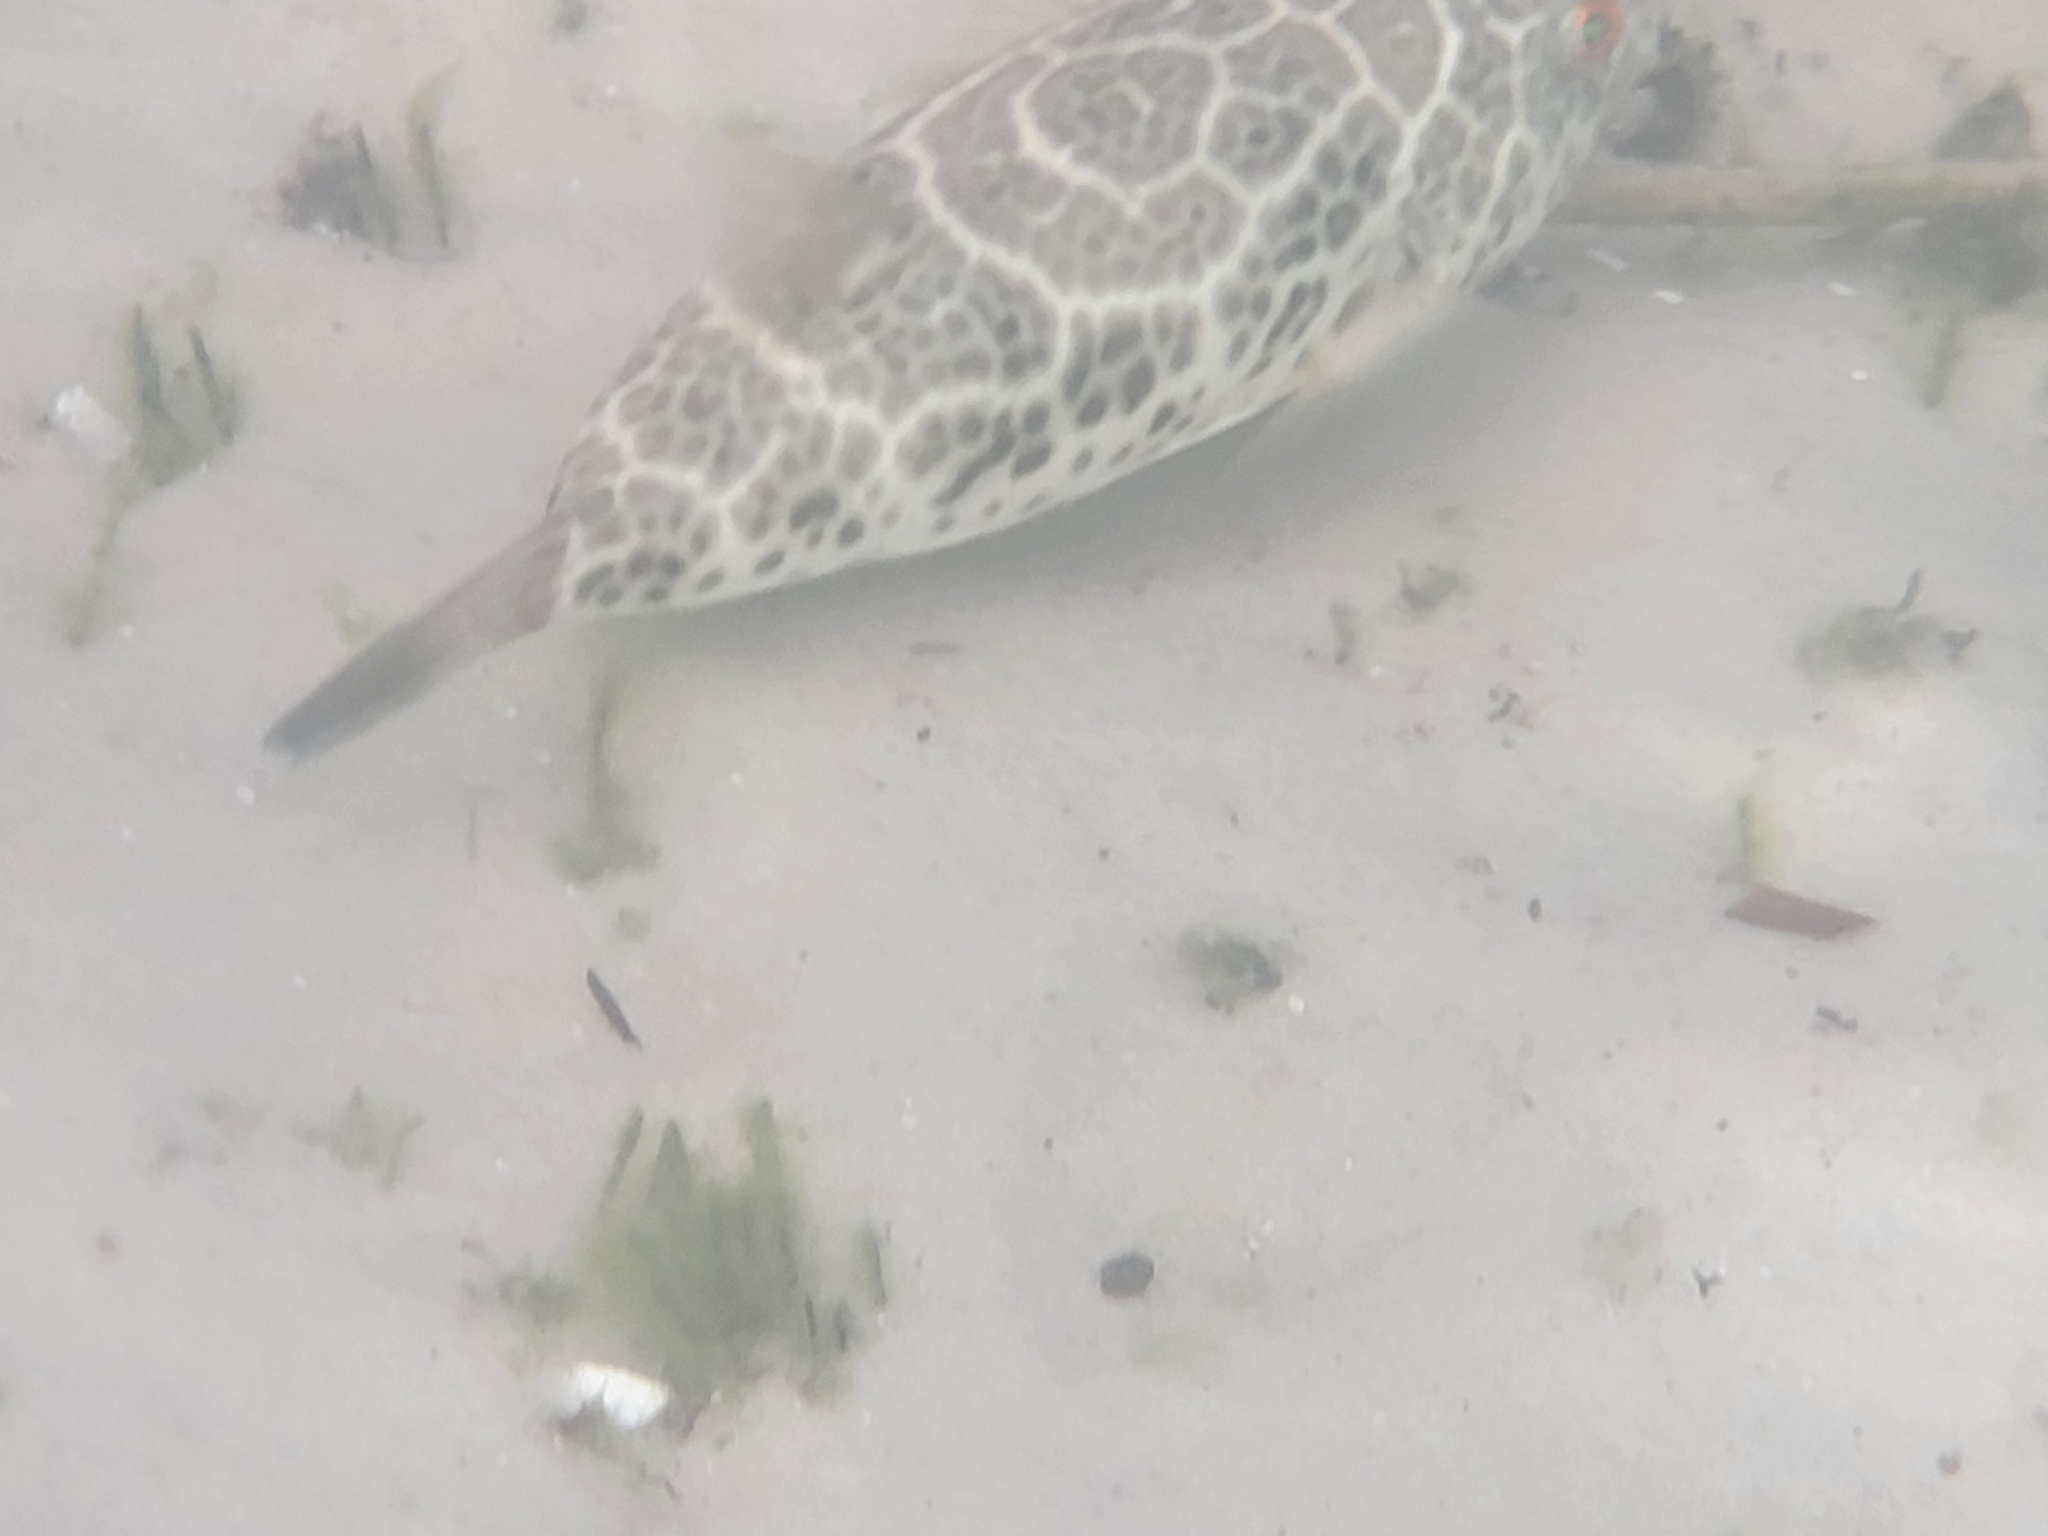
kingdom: Animalia
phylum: Chordata
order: Tetraodontiformes
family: Tetraodontidae
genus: Sphoeroides
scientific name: Sphoeroides testudineus
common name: Checkered puffer
